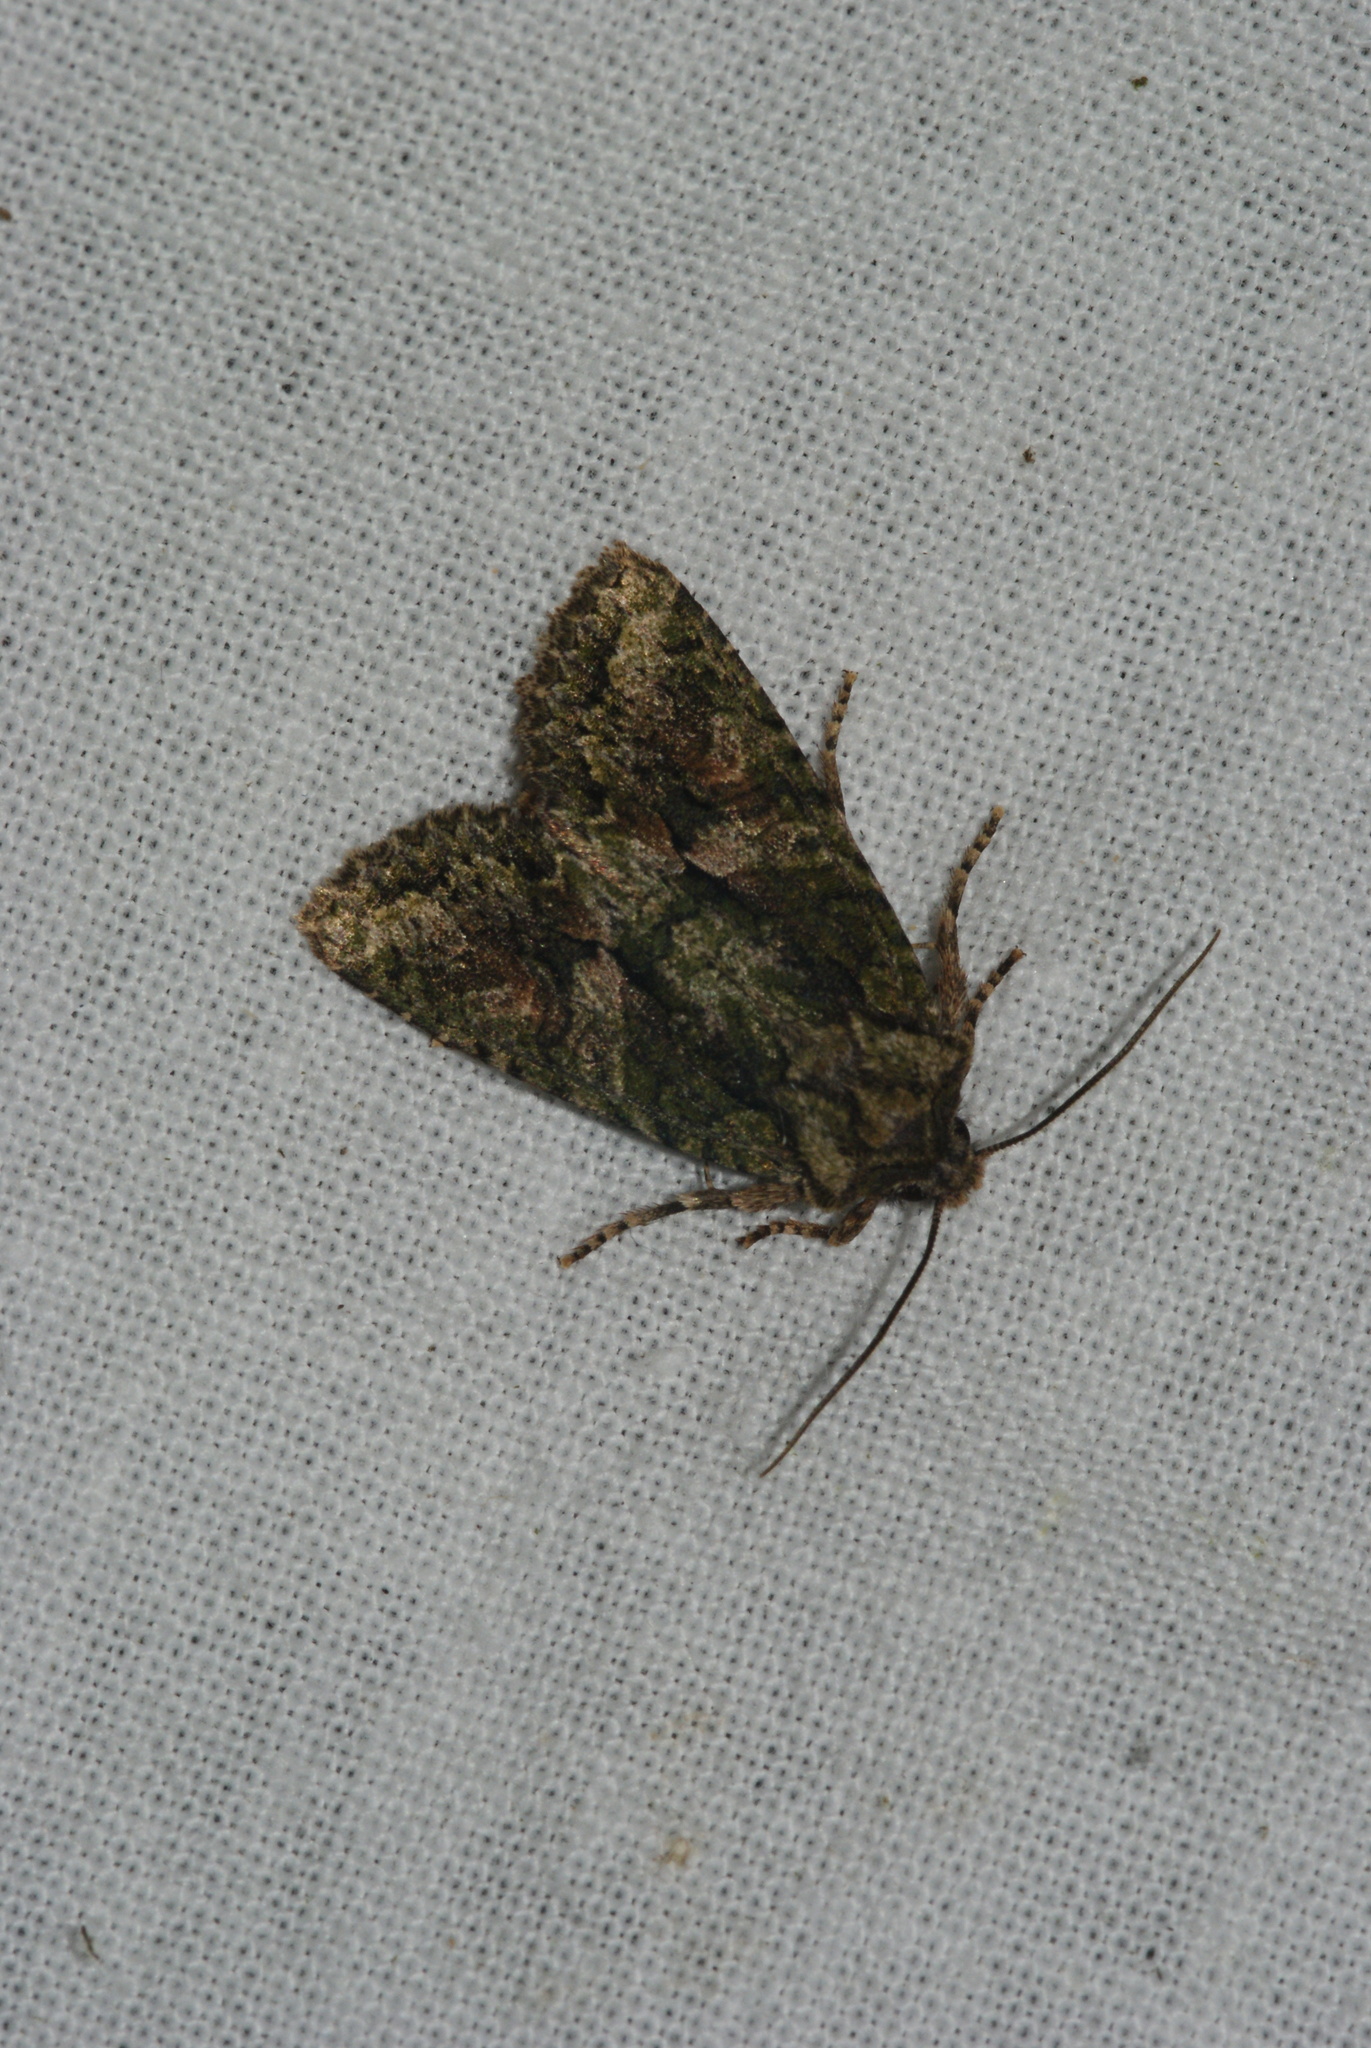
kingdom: Animalia
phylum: Arthropoda
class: Insecta
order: Lepidoptera
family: Noctuidae
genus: Dryobotodes
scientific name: Dryobotodes eremita
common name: Brindled green
